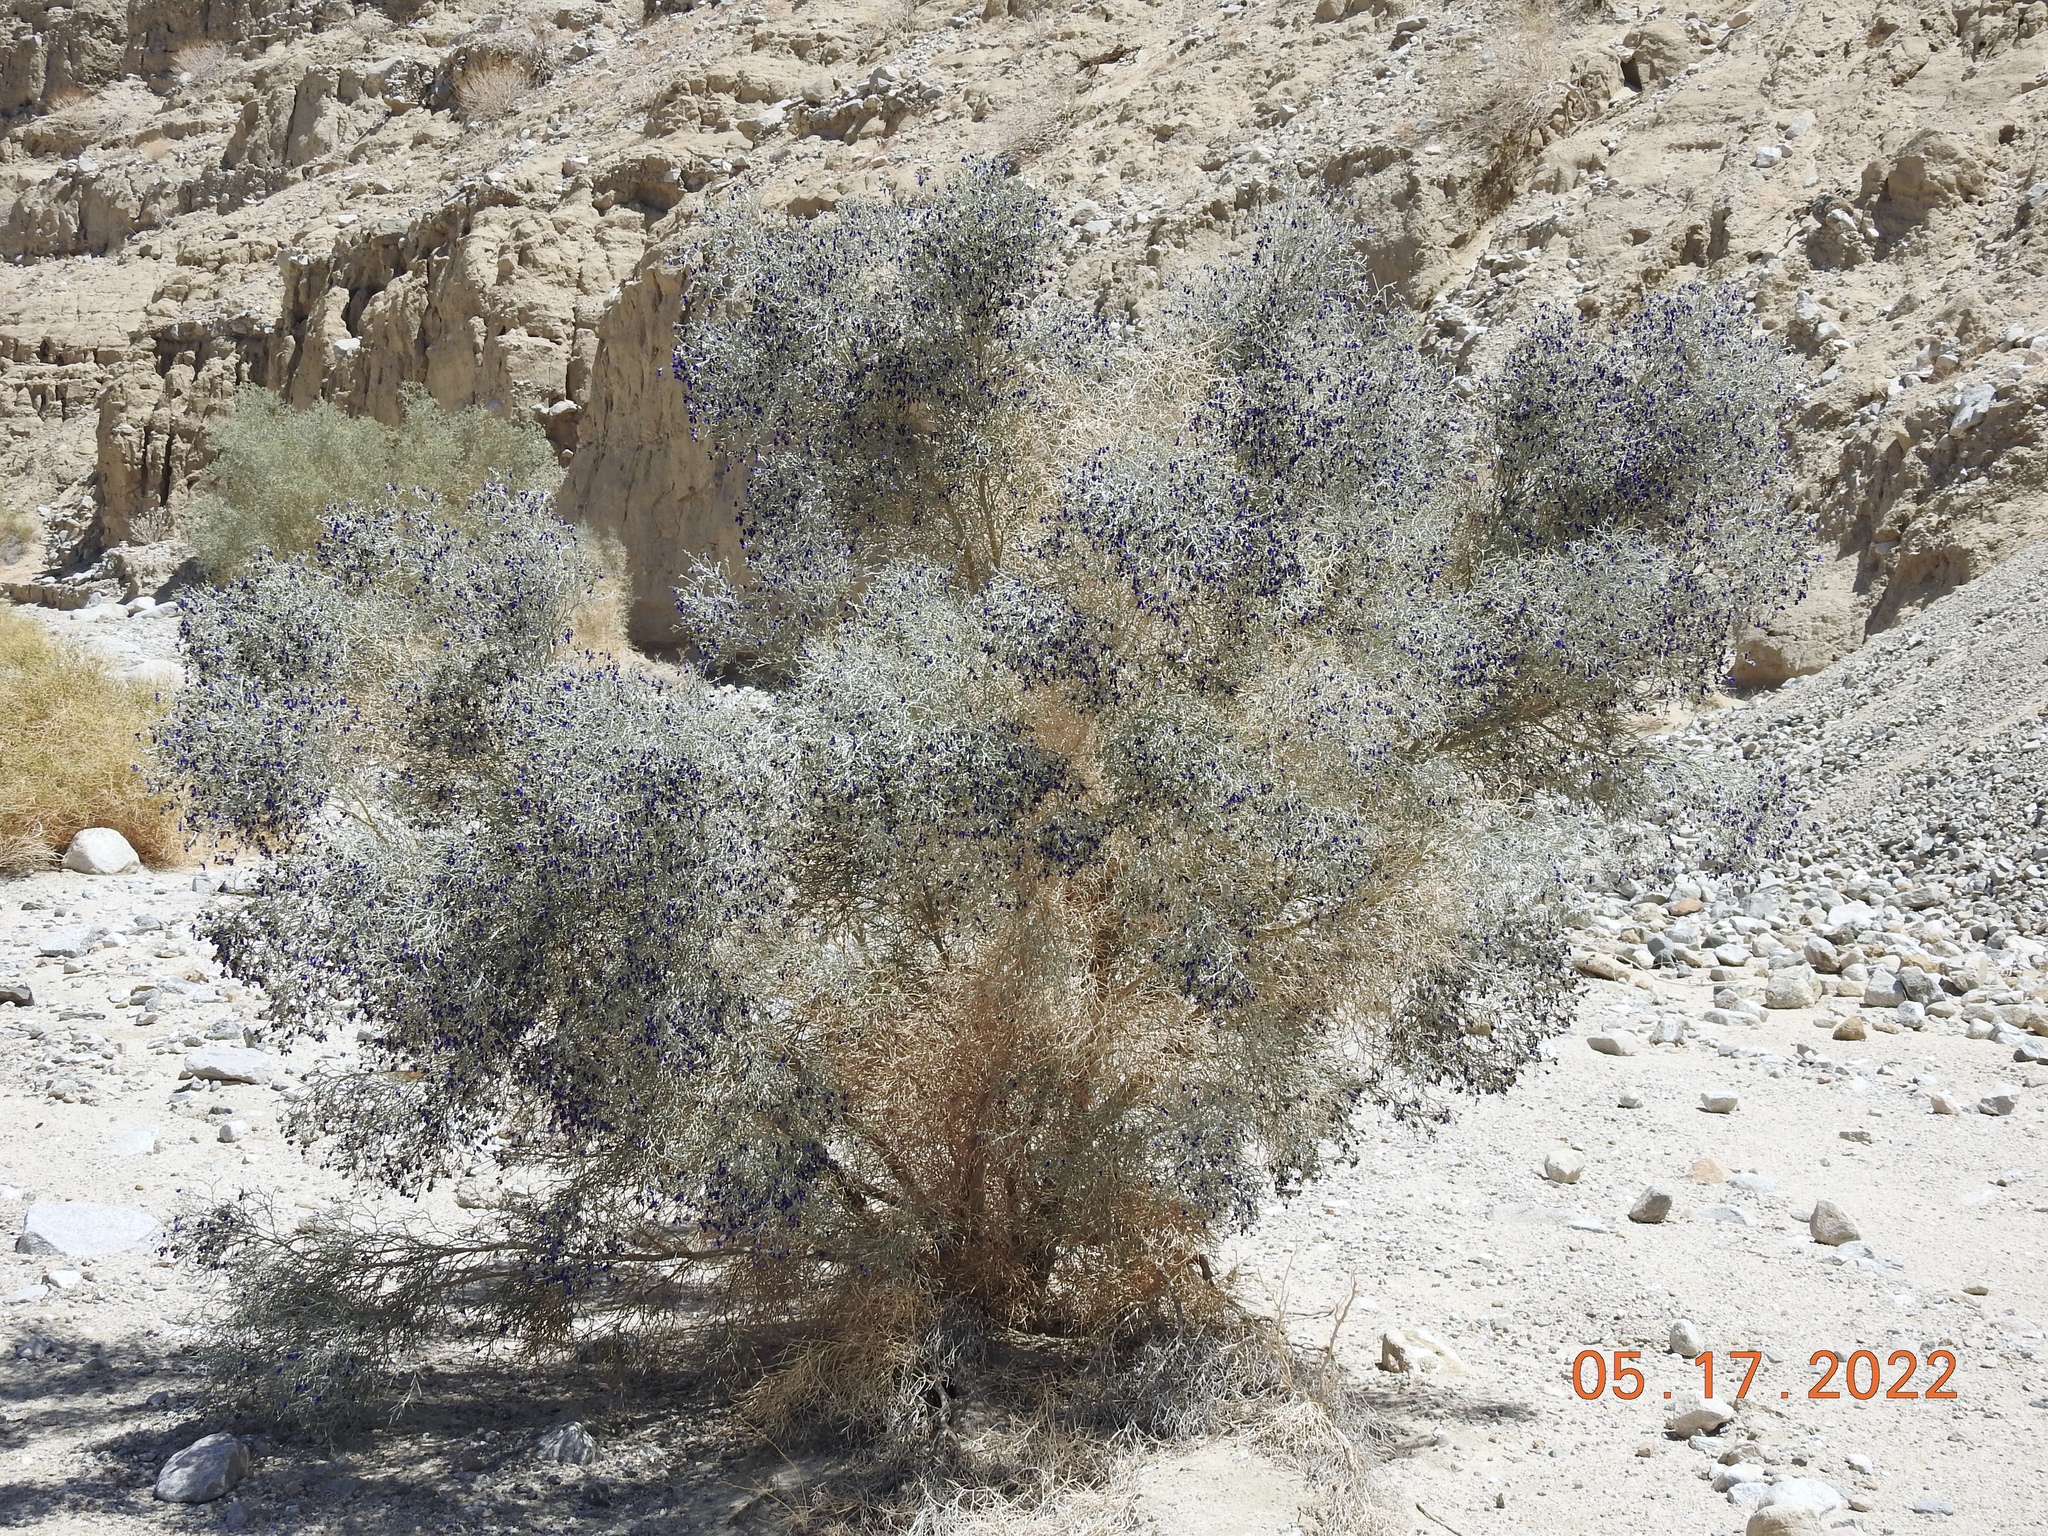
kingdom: Plantae
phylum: Tracheophyta
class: Magnoliopsida
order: Fabales
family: Fabaceae
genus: Psorothamnus
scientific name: Psorothamnus spinosus
